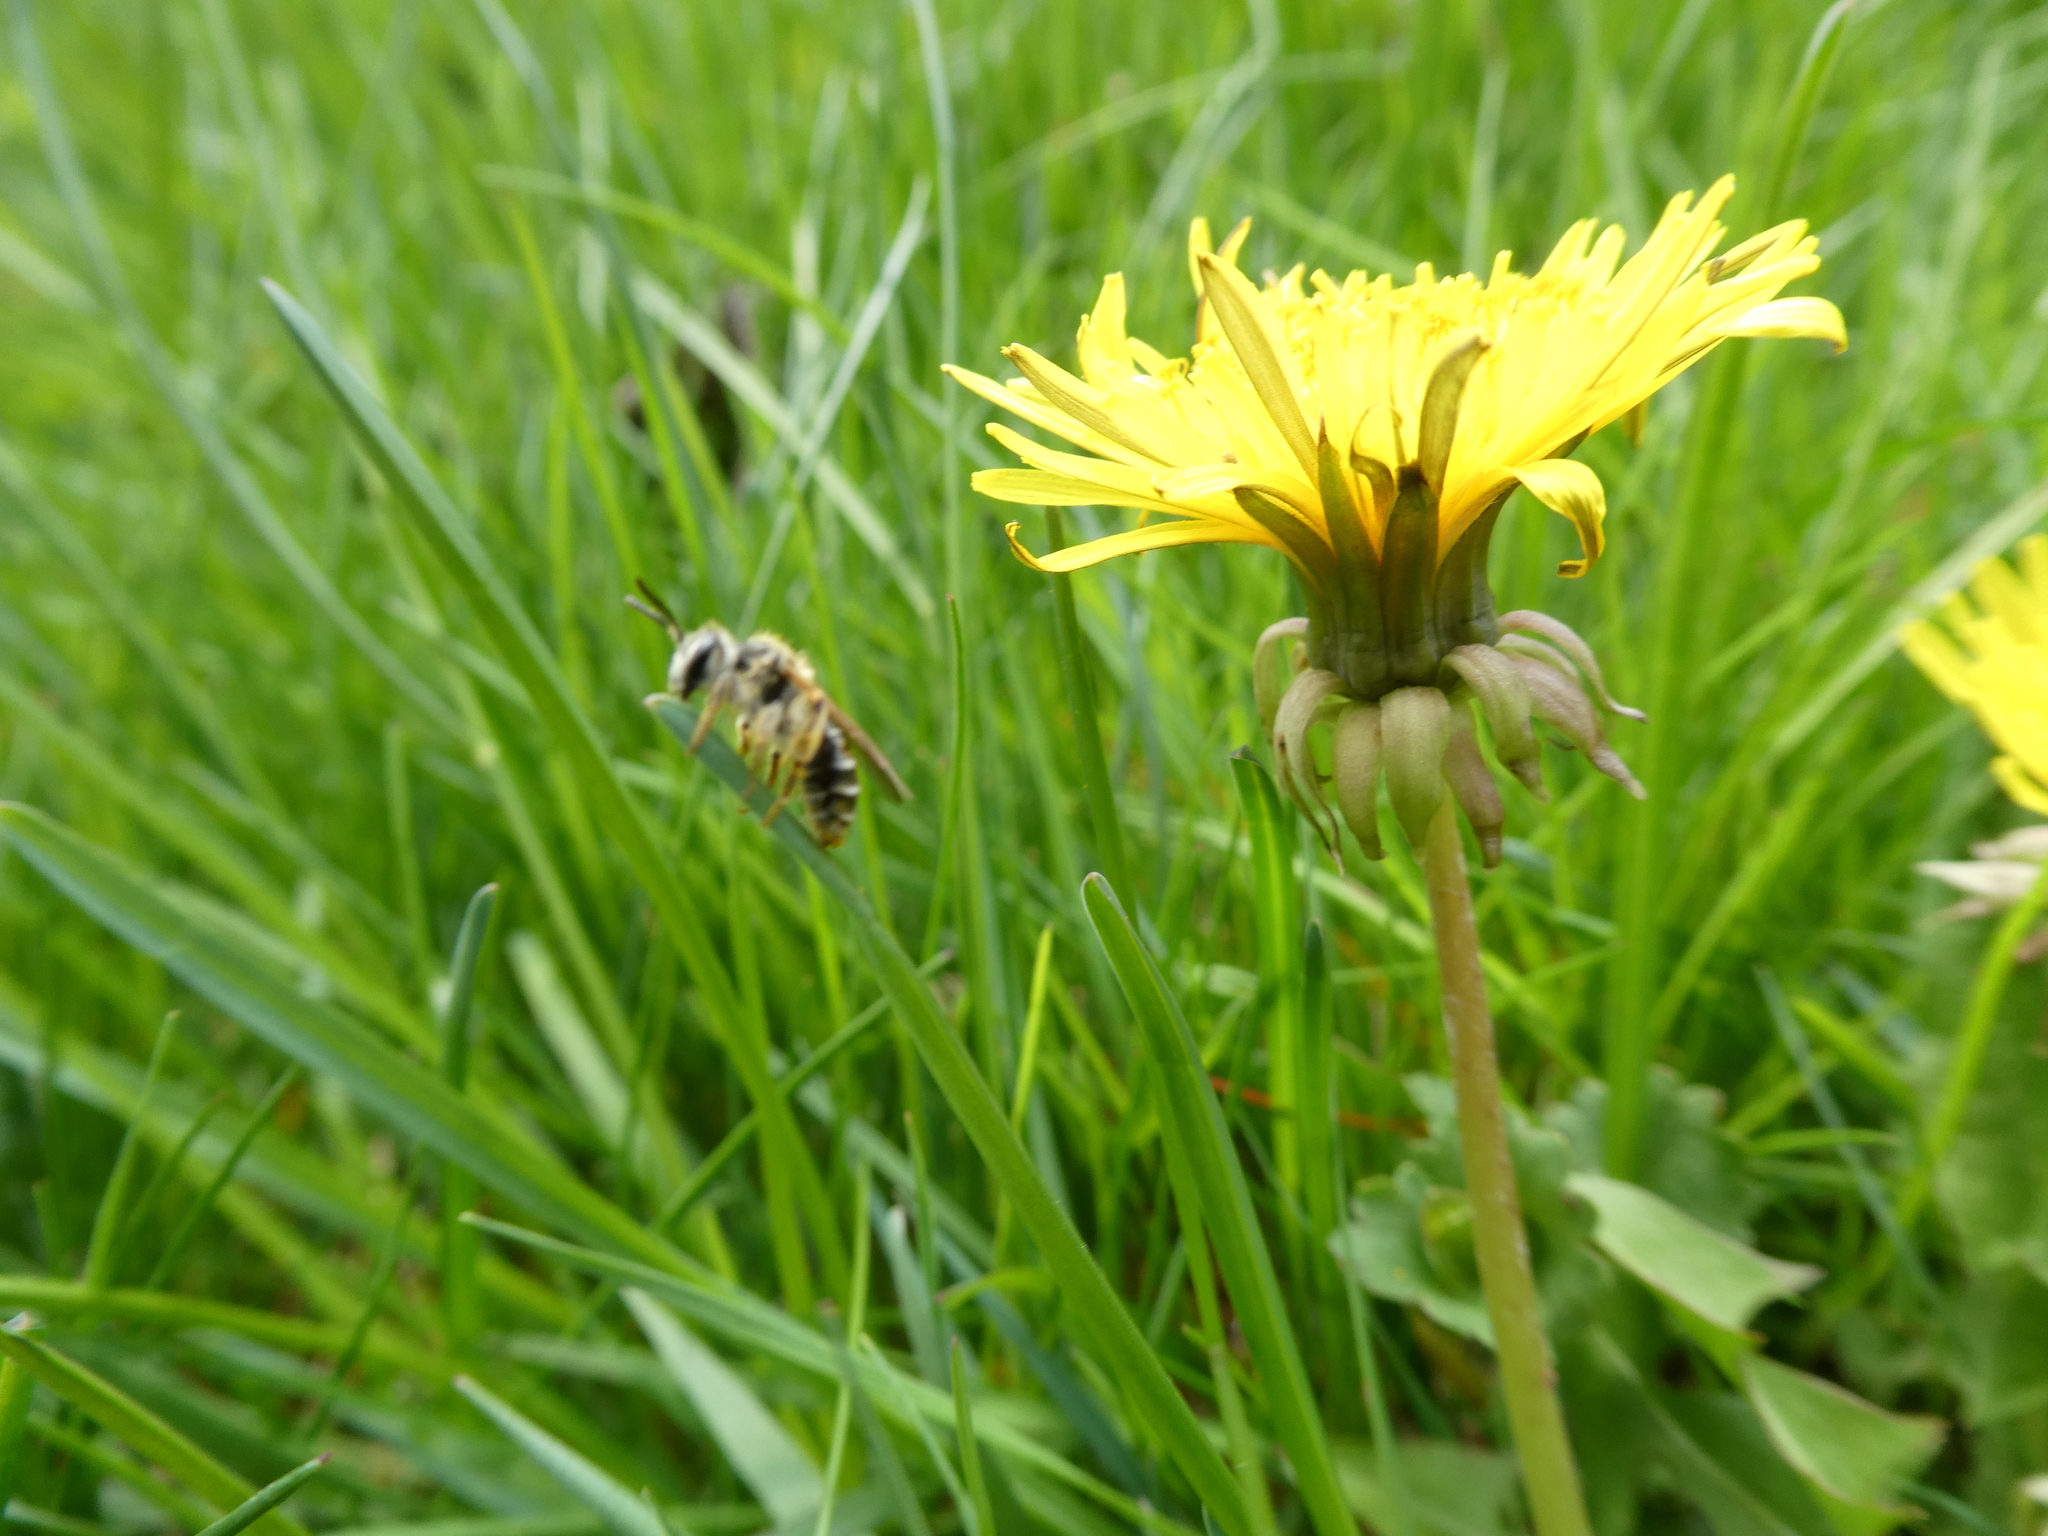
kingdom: Animalia
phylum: Arthropoda
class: Insecta
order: Hymenoptera
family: Andrenidae
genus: Andrena
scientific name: Andrena
